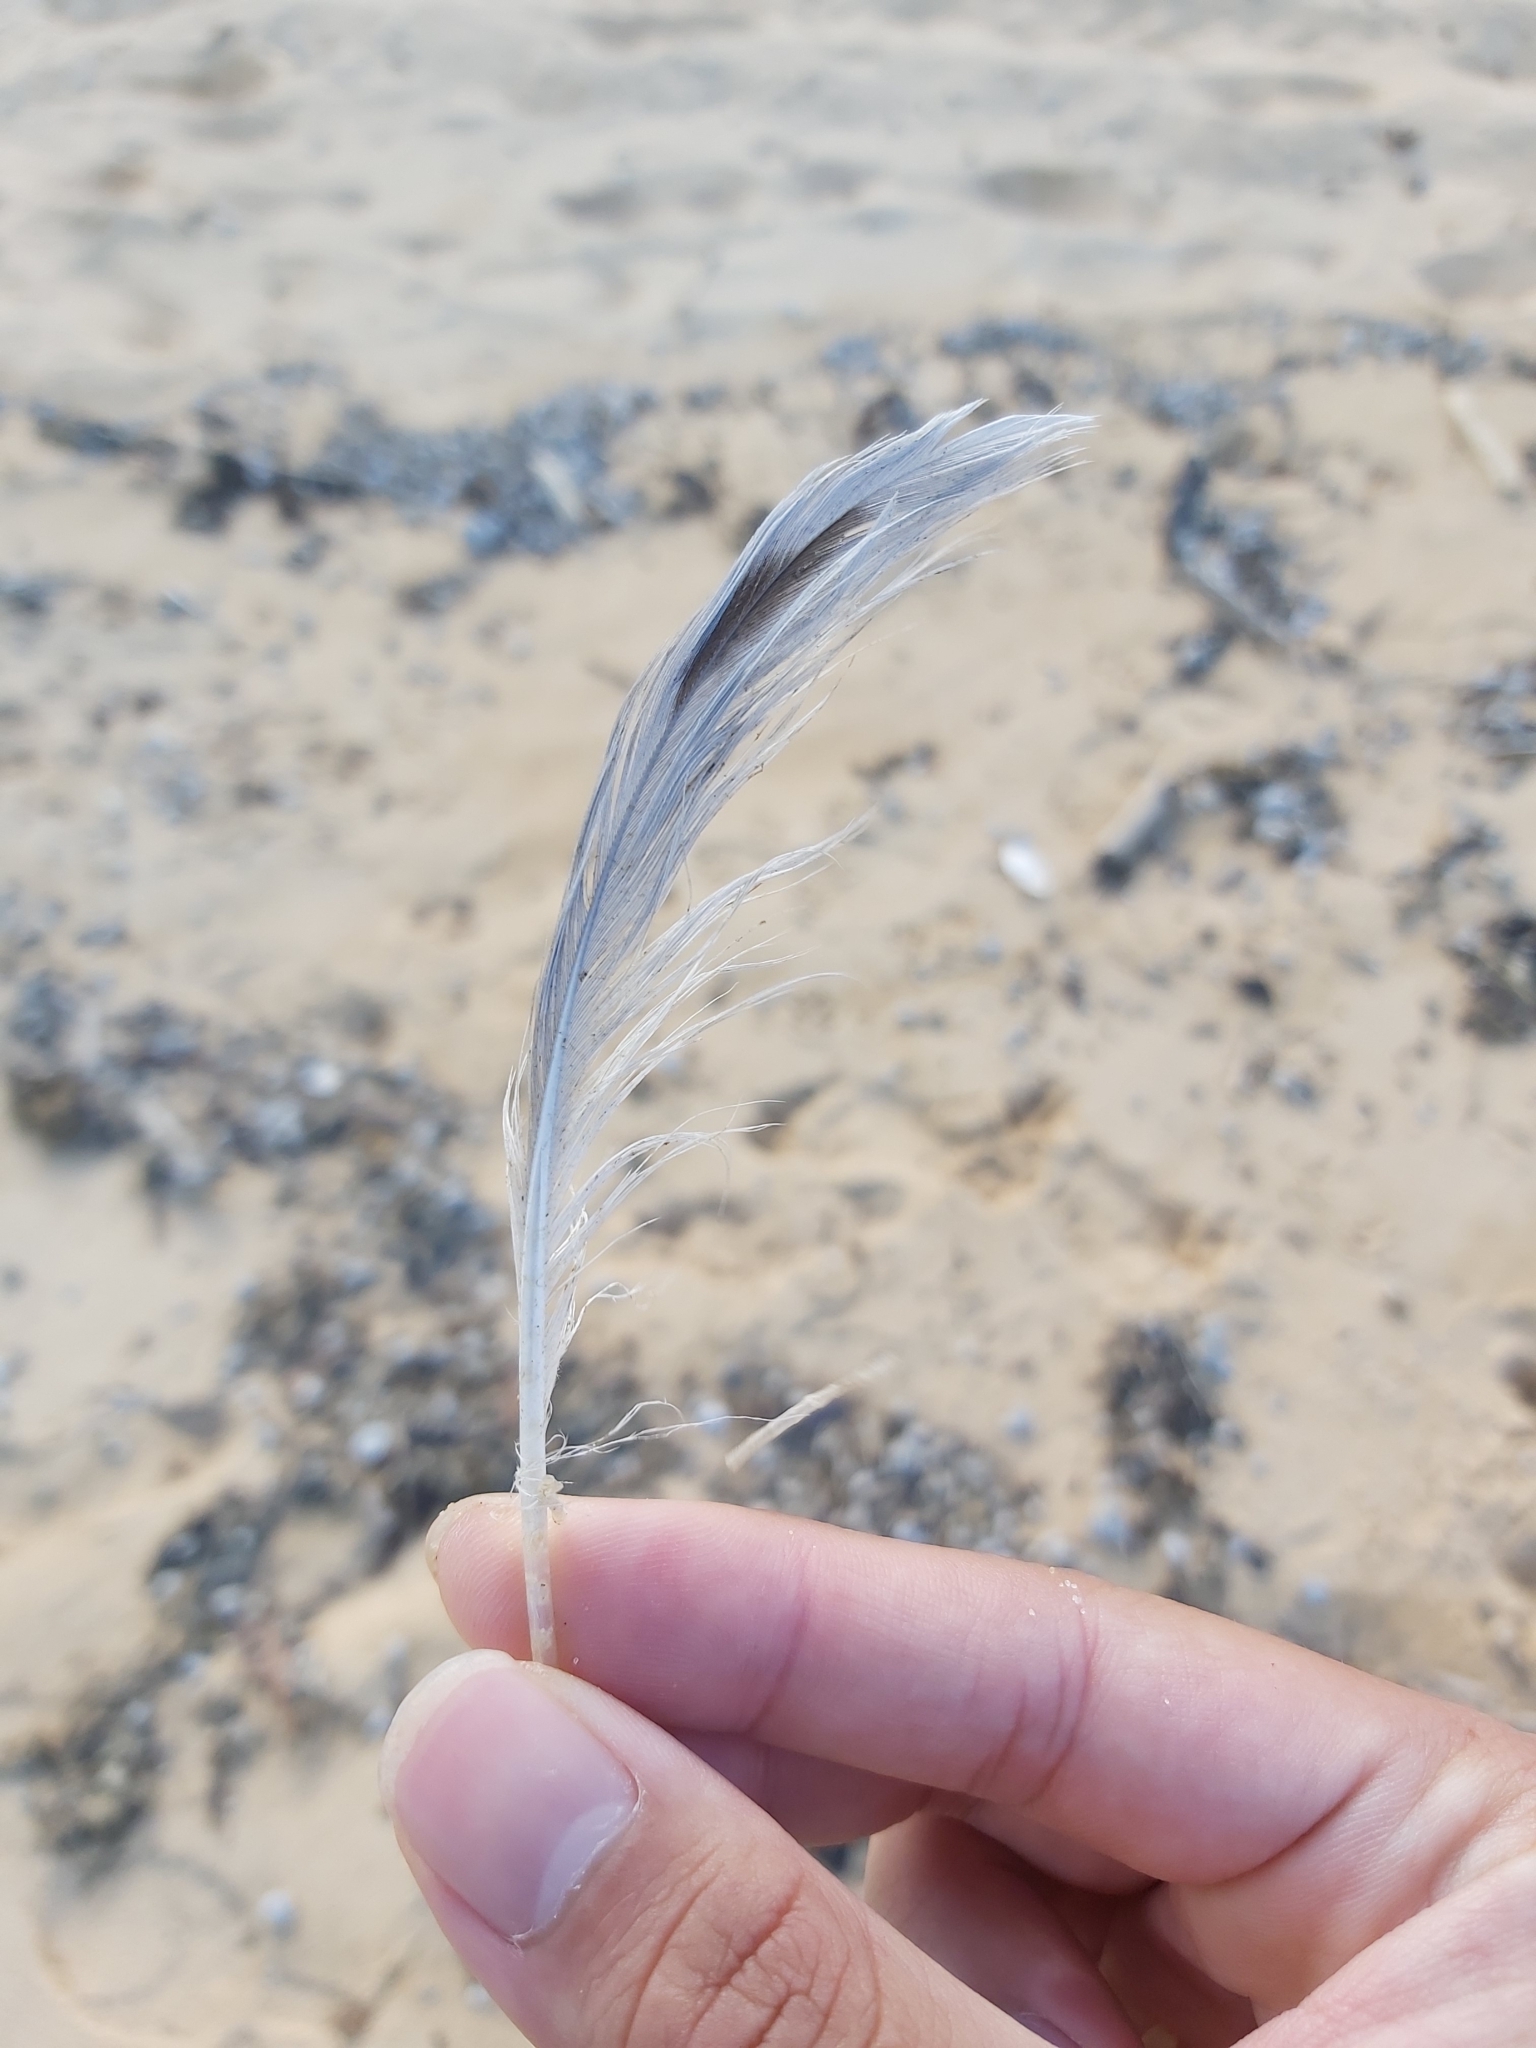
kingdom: Animalia
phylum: Chordata
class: Aves
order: Charadriiformes
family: Laridae
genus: Chroicocephalus
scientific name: Chroicocephalus novaehollandiae
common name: Silver gull
